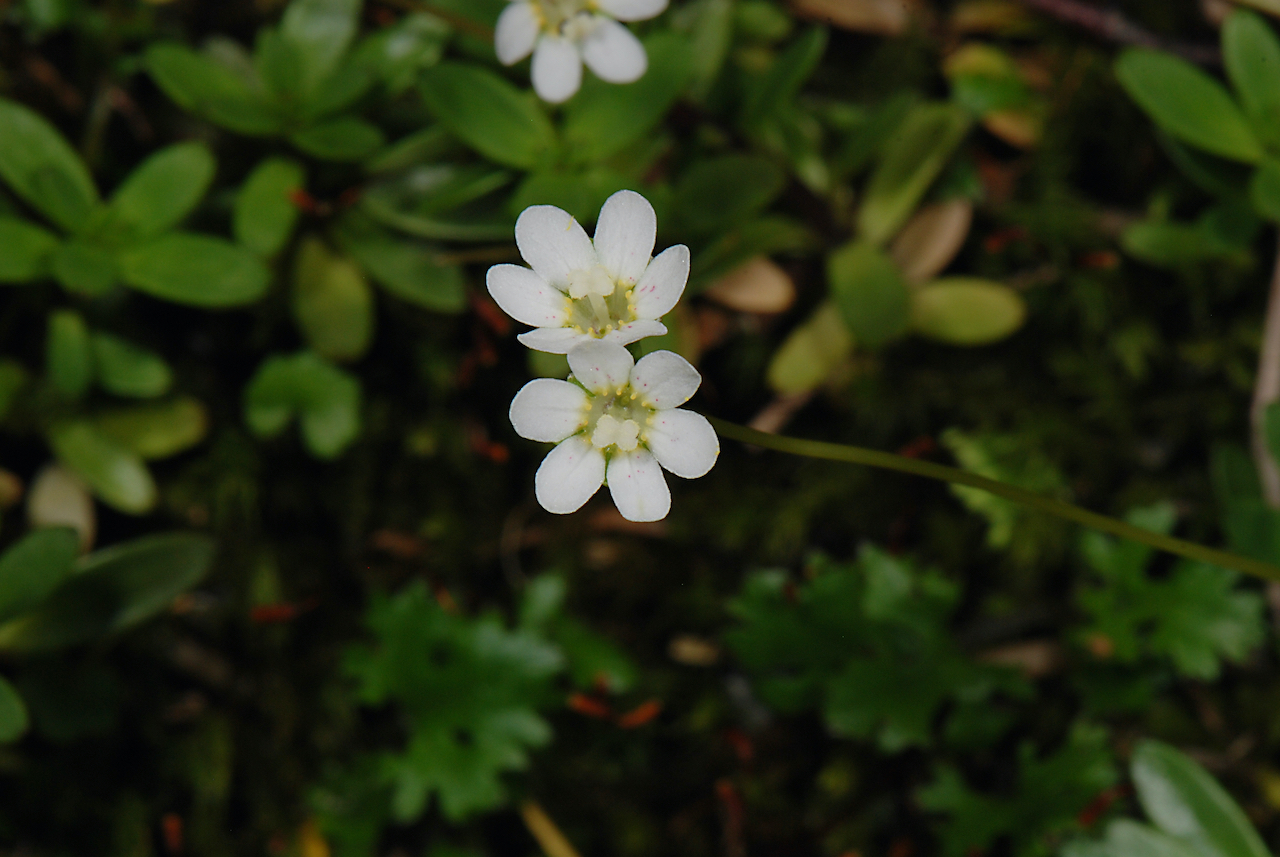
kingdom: Plantae
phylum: Tracheophyta
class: Magnoliopsida
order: Asterales
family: Stylidiaceae
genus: Forstera
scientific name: Forstera tenella
